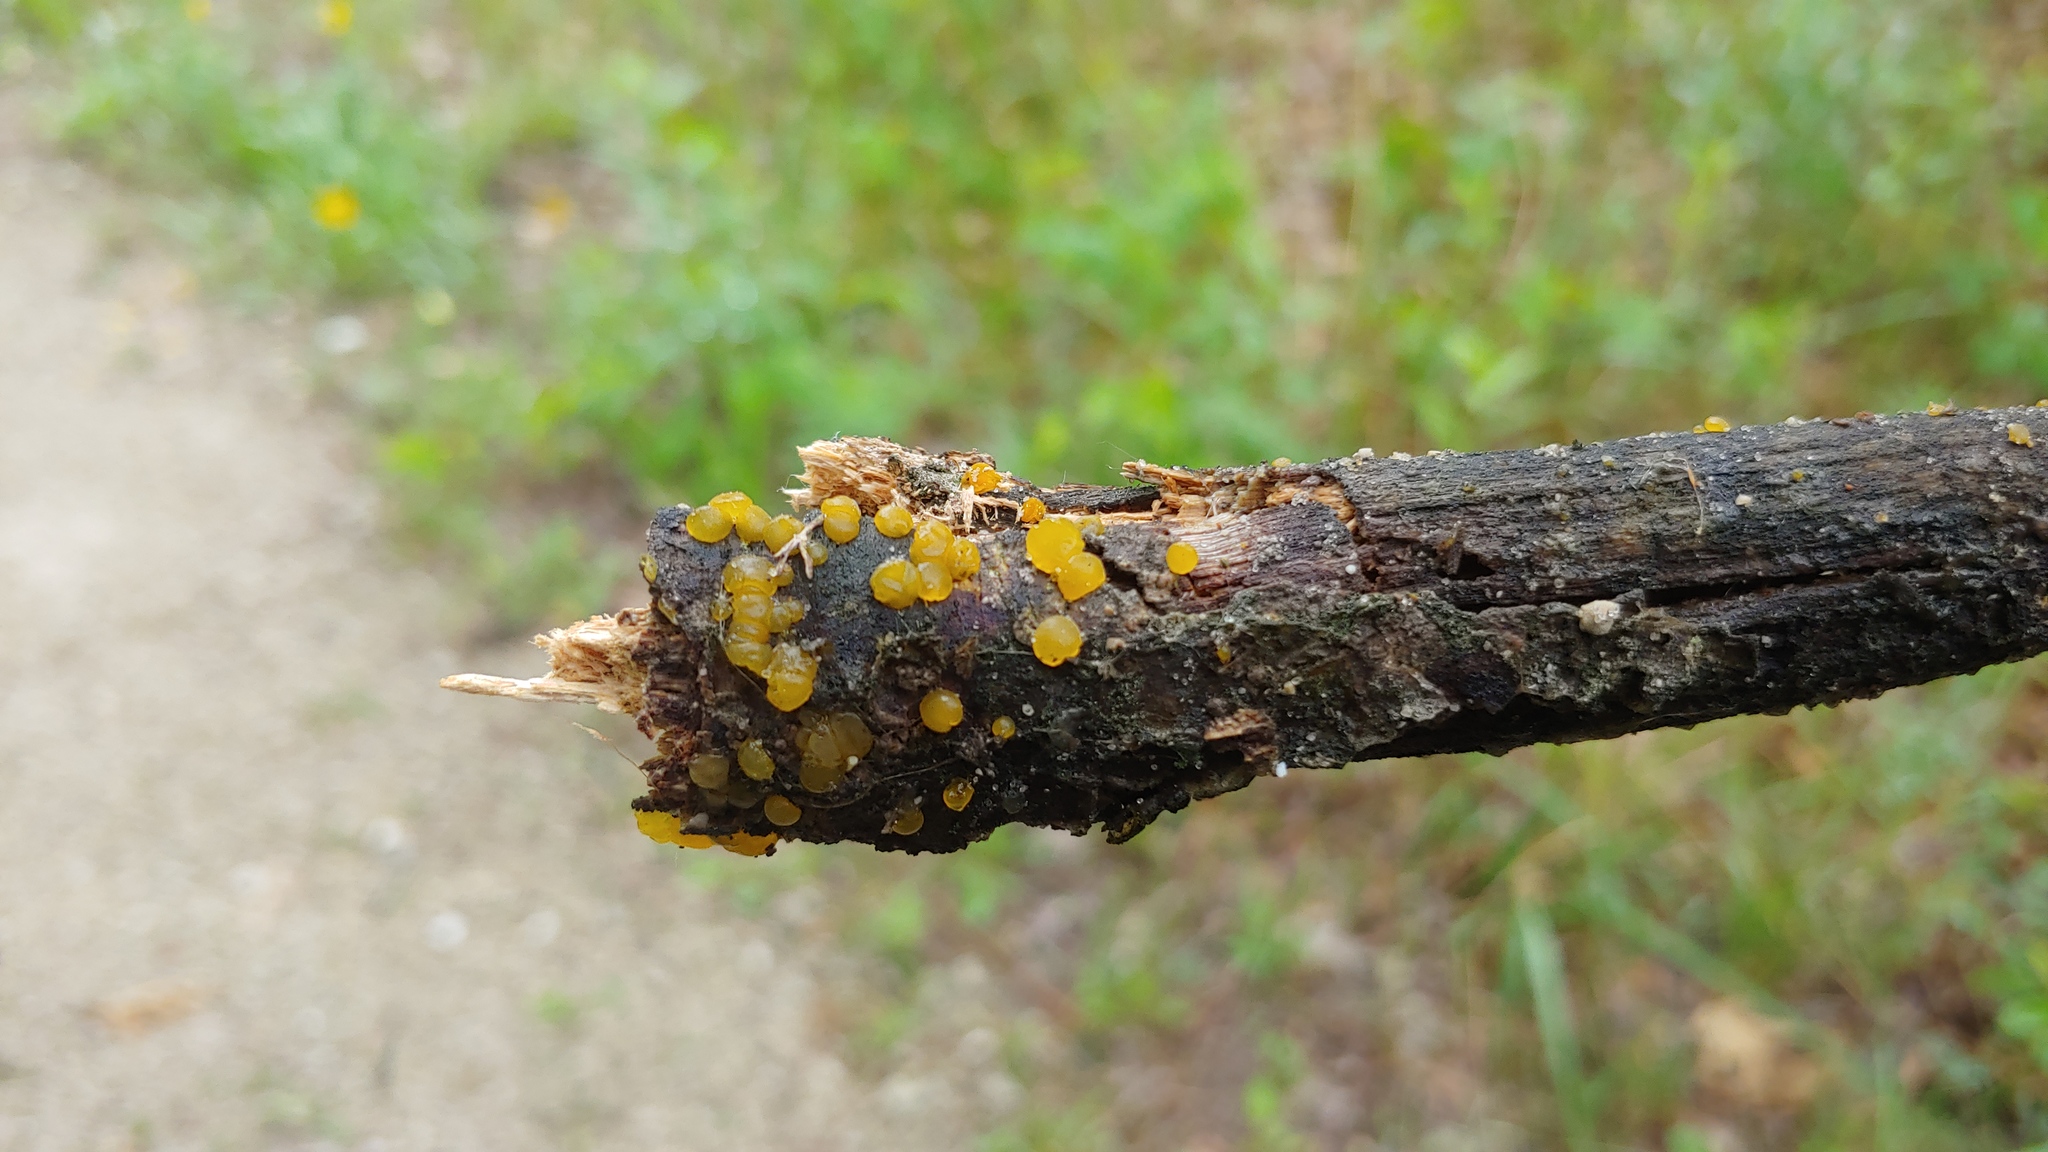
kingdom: Fungi
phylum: Basidiomycota
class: Dacrymycetes
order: Dacrymycetales
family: Dacrymycetaceae
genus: Dacrymyces
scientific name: Dacrymyces capitatus
